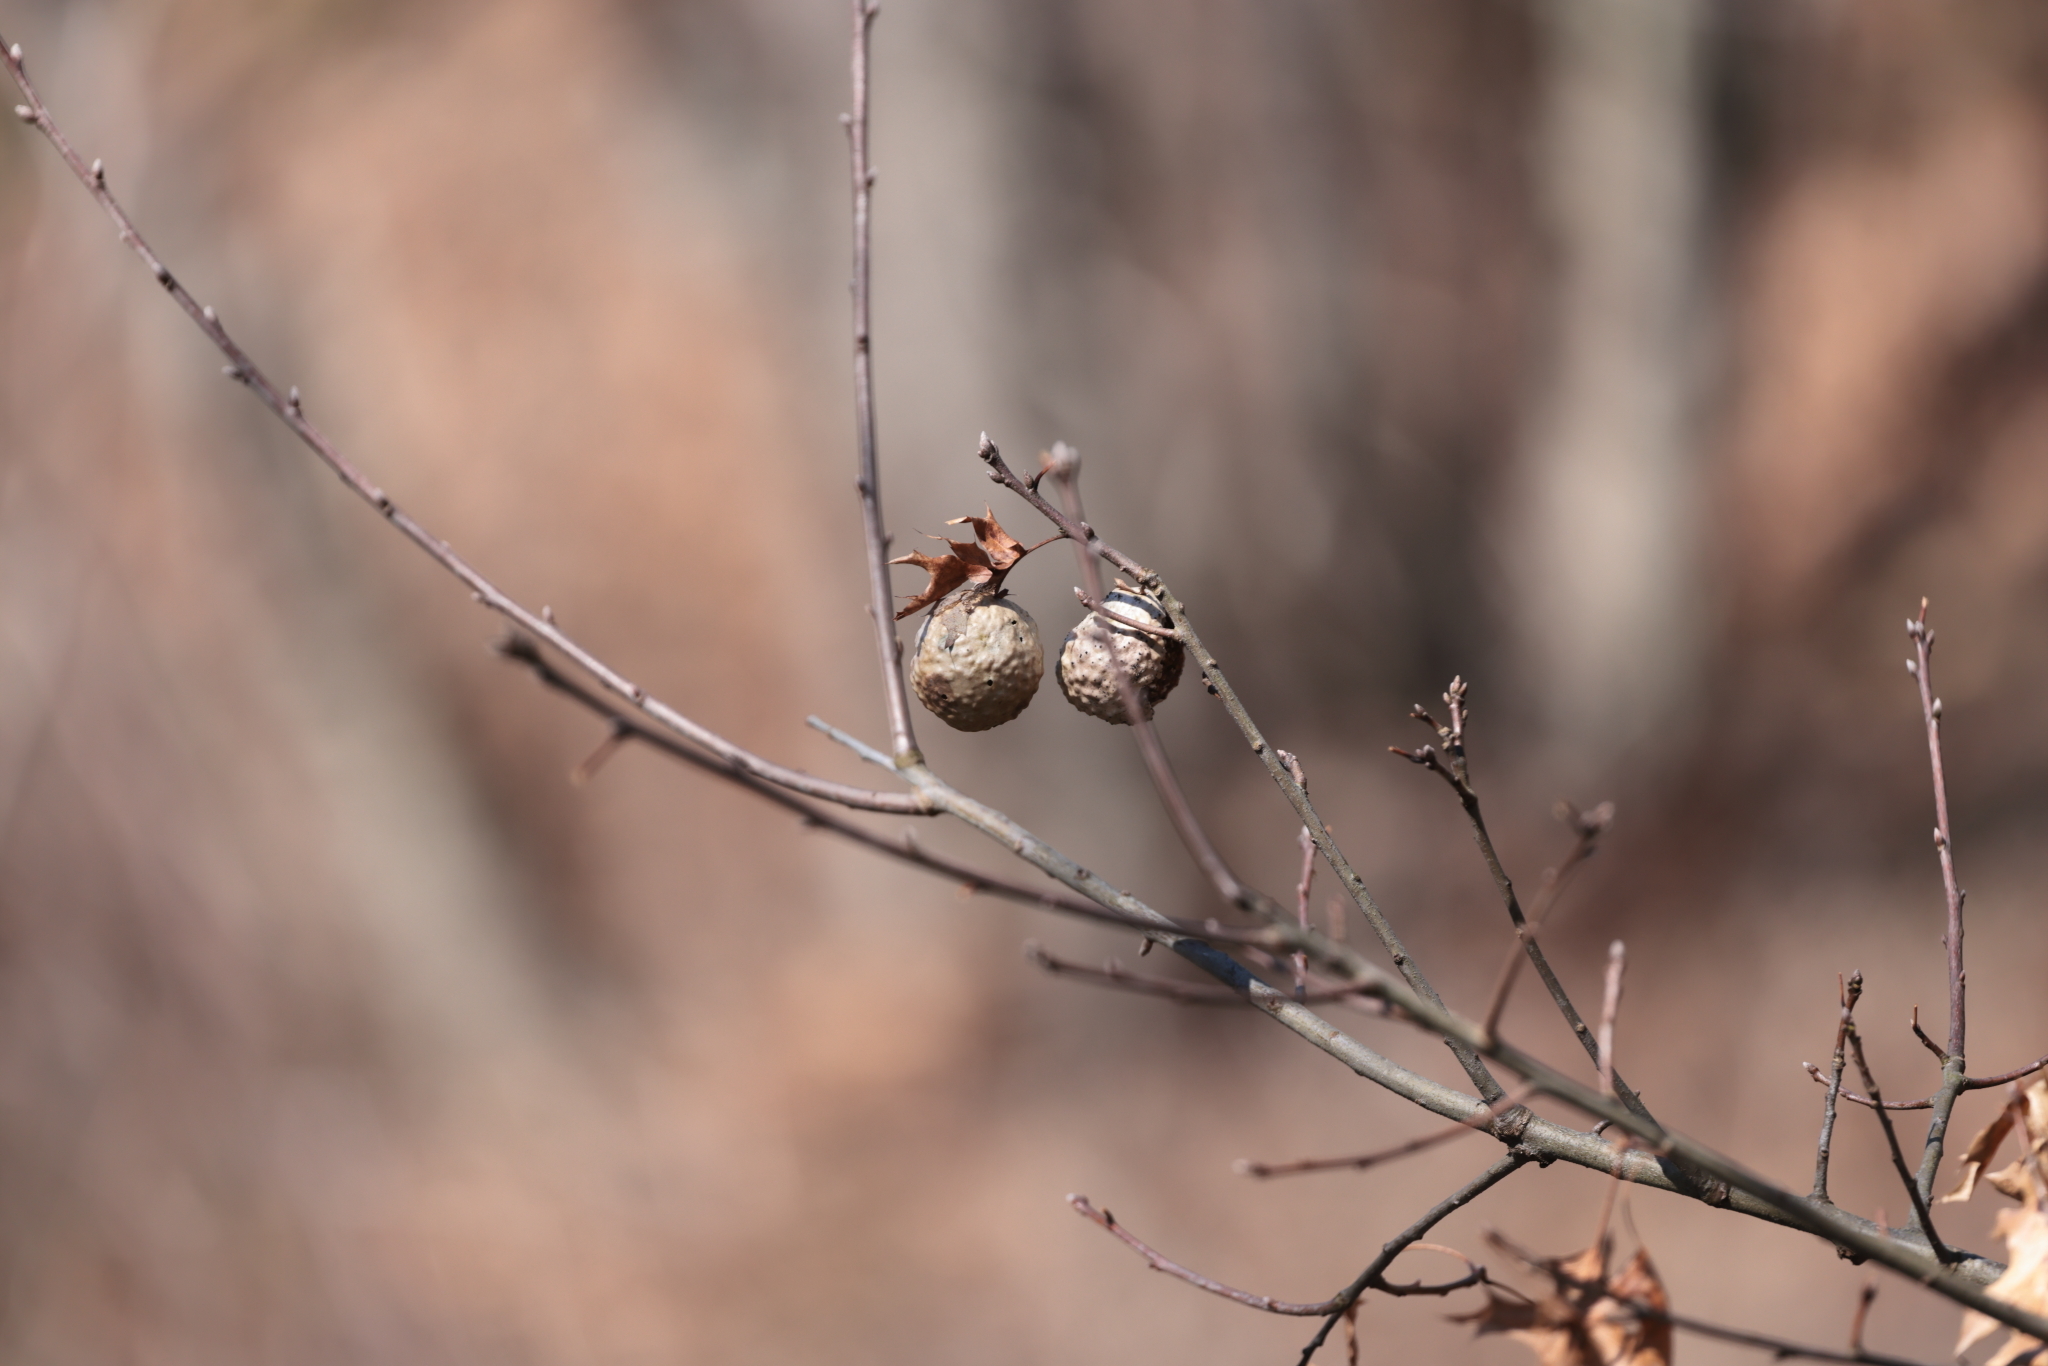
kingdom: Animalia
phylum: Arthropoda
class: Insecta
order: Hymenoptera
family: Cynipidae
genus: Amphibolips
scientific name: Amphibolips
